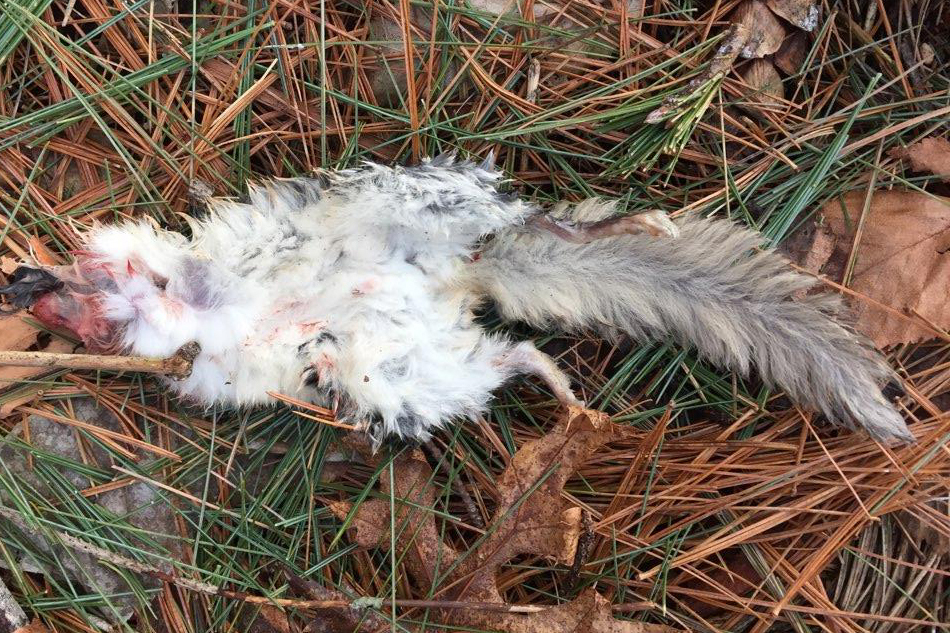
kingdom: Animalia
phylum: Chordata
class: Mammalia
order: Rodentia
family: Sciuridae
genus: Glaucomys
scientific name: Glaucomys volans
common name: Southern flying squirrel
